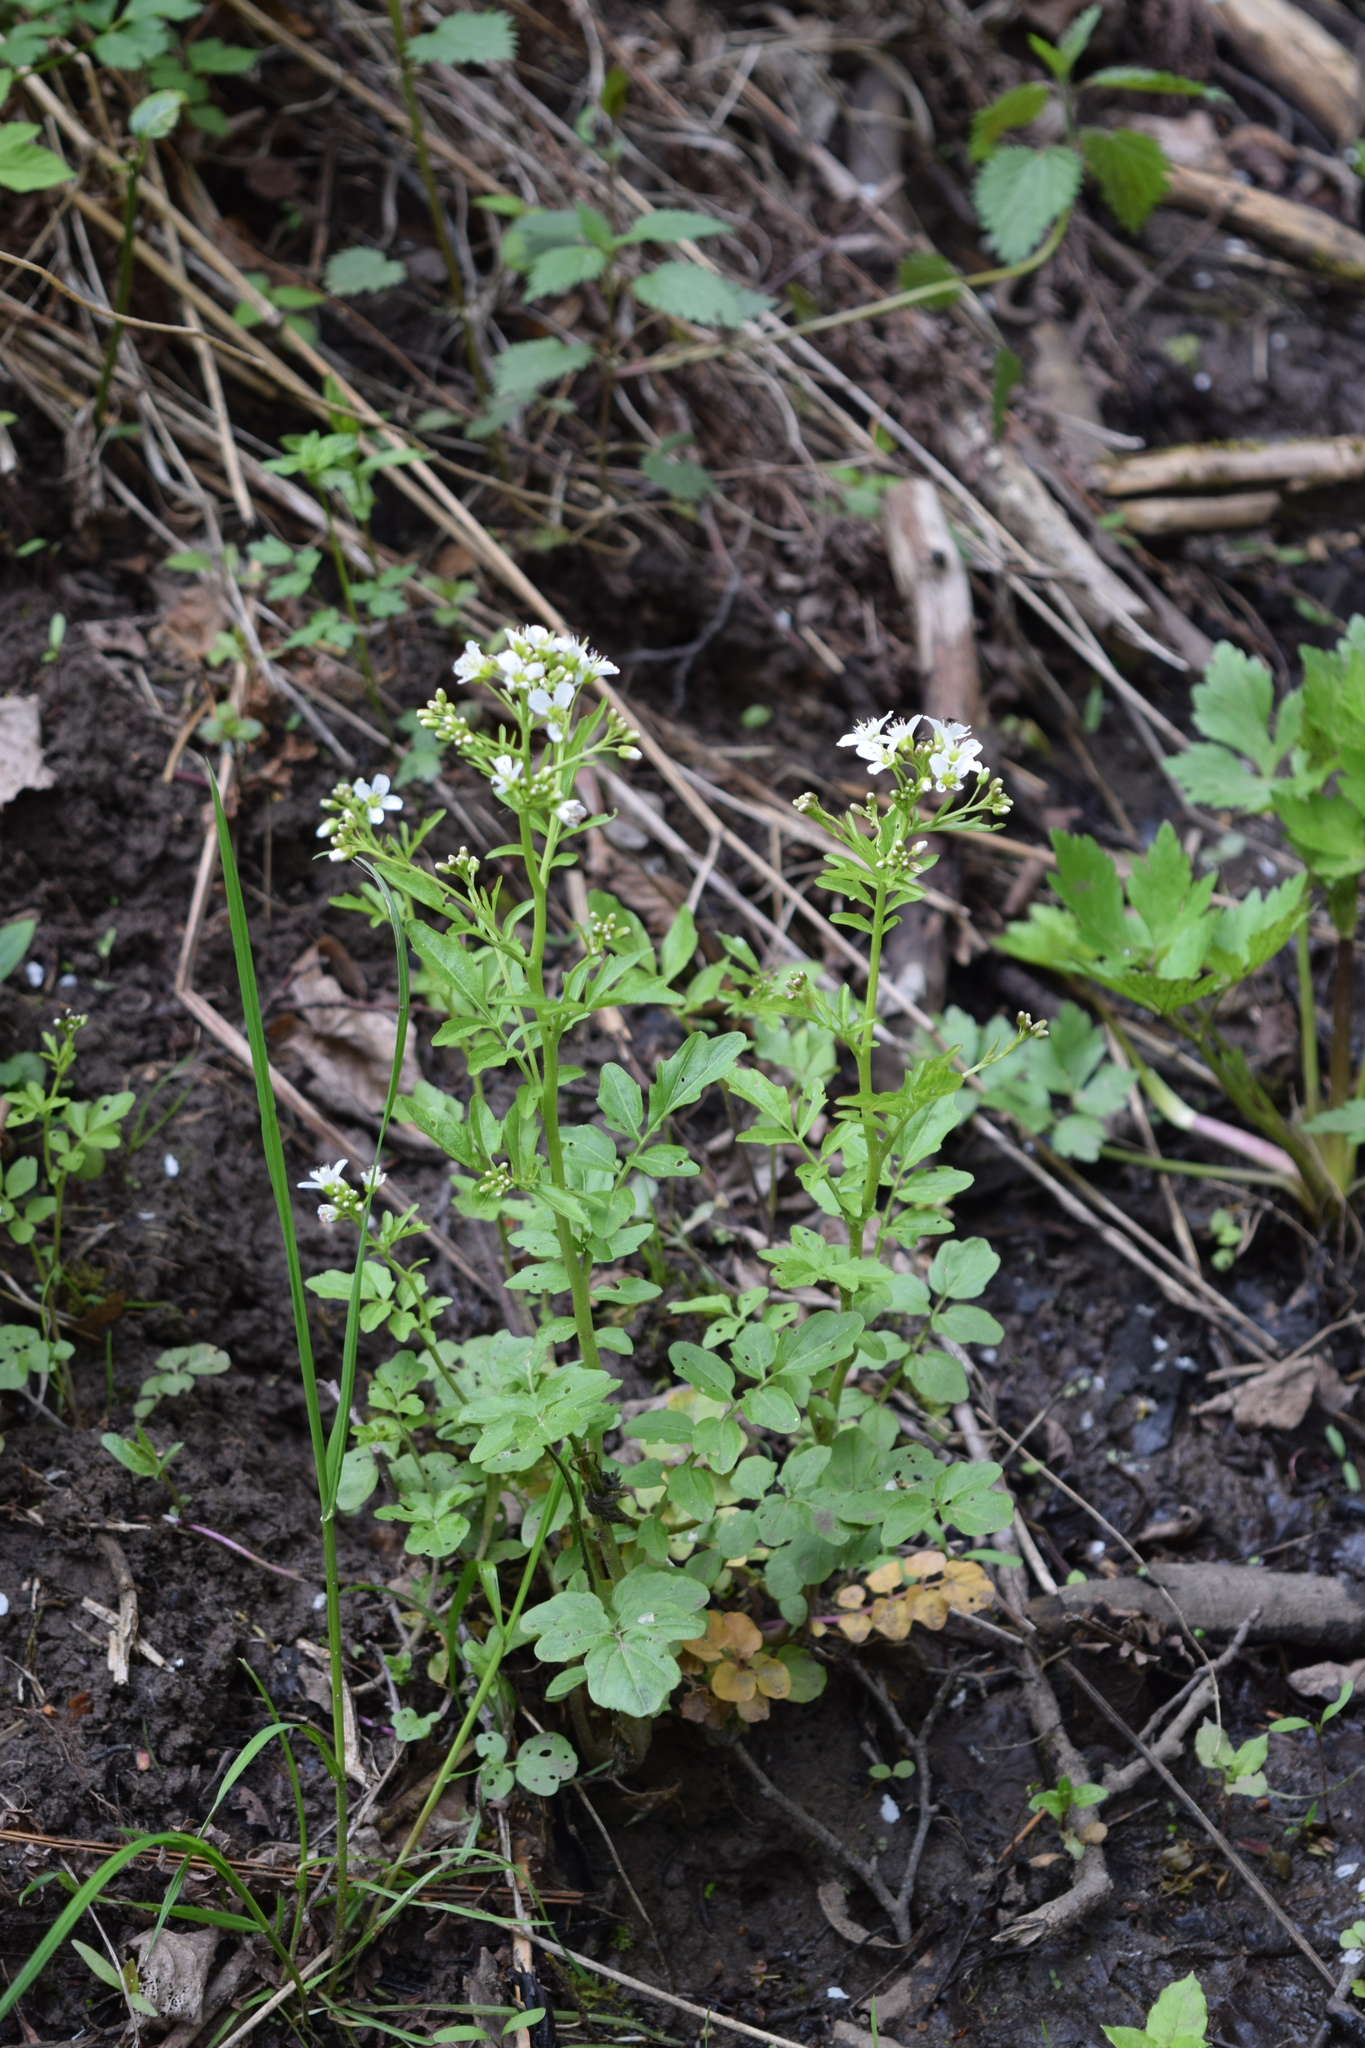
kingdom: Plantae
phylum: Tracheophyta
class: Magnoliopsida
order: Brassicales
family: Brassicaceae
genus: Cardamine
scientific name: Cardamine amara
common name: Large bitter-cress
